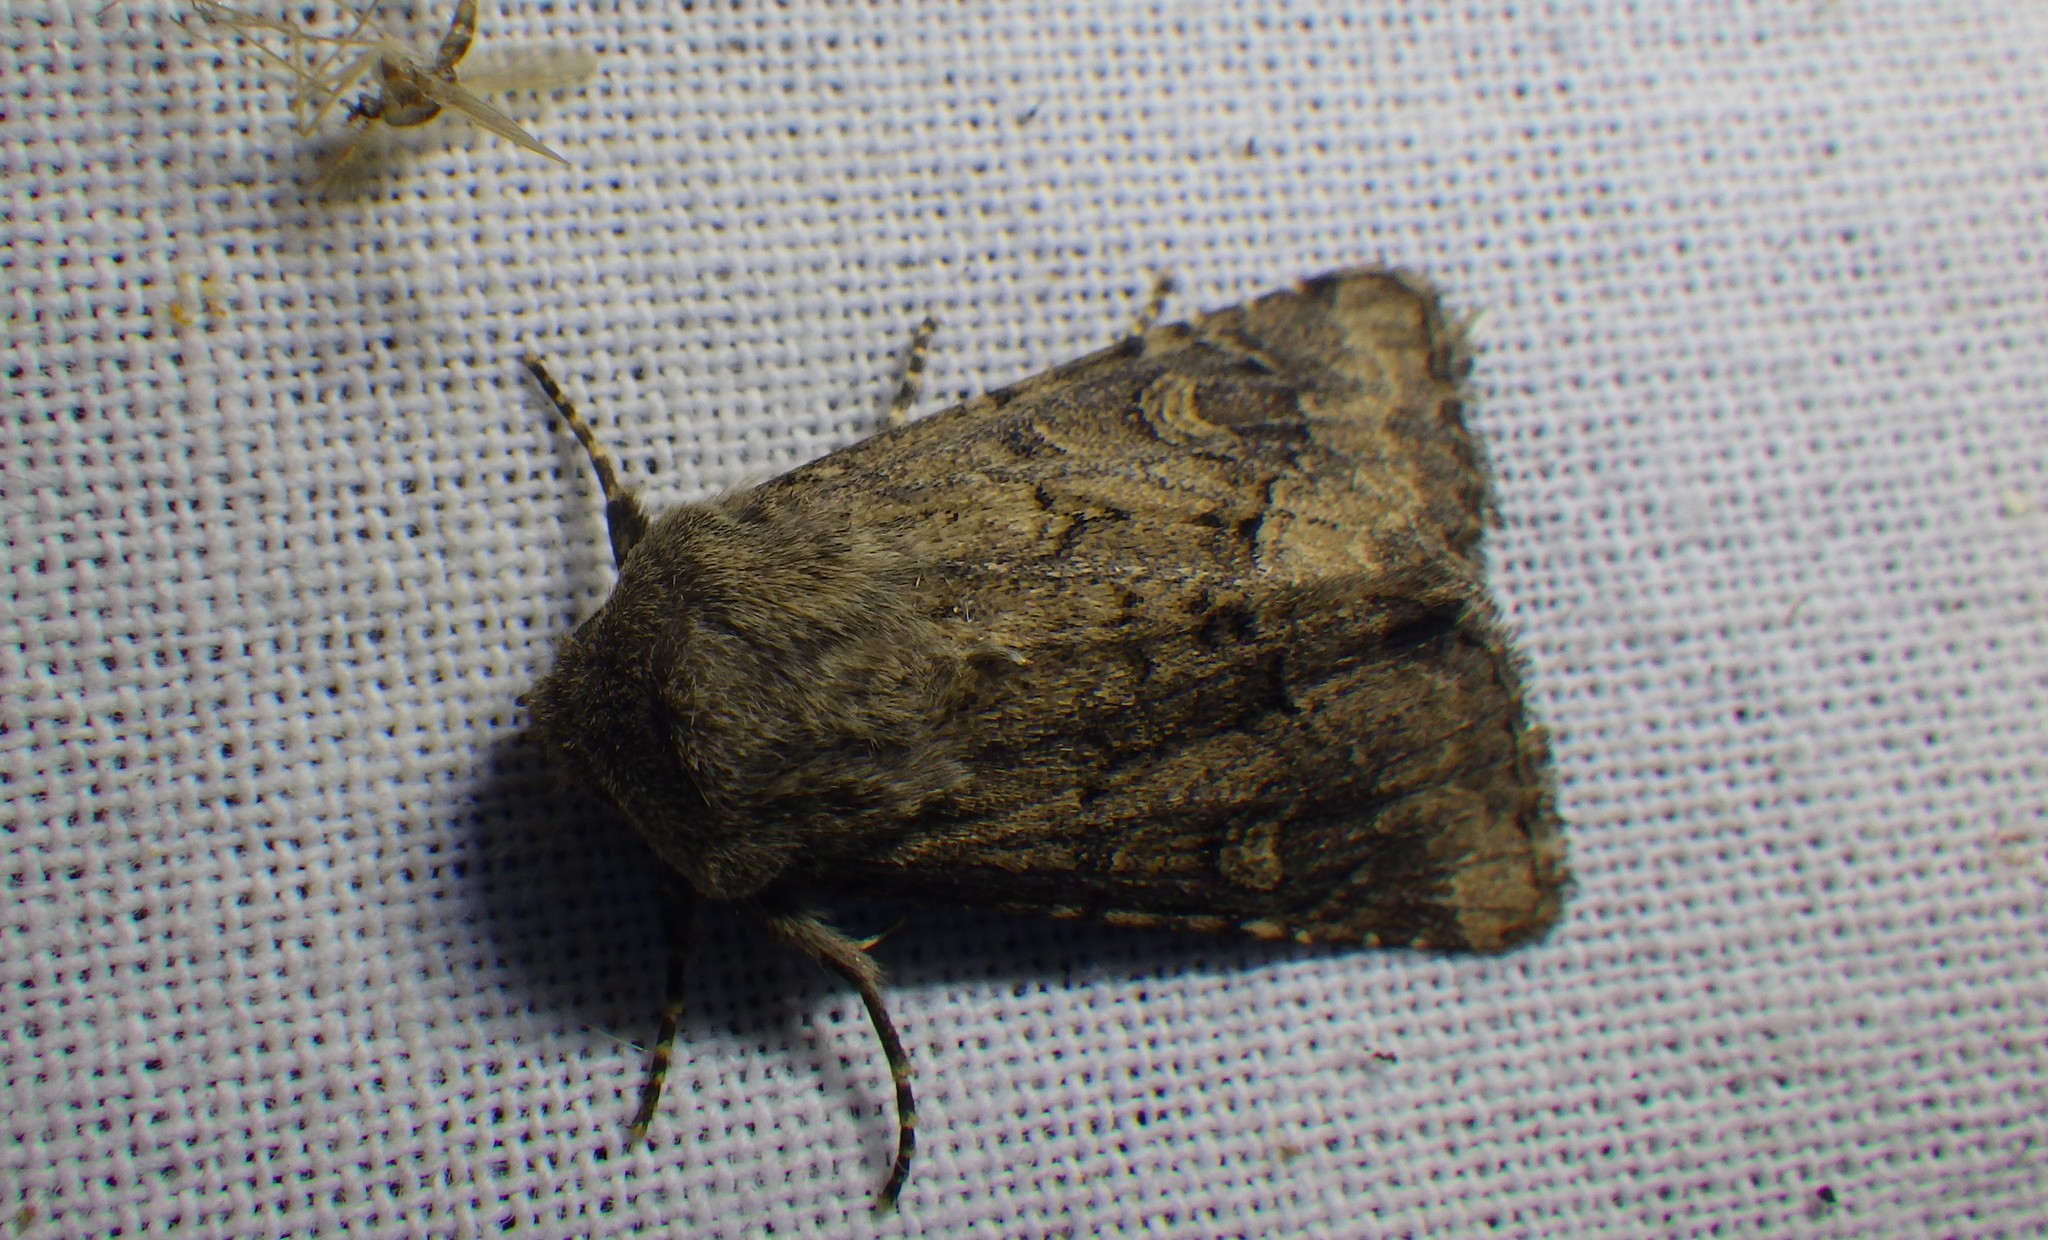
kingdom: Animalia
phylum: Arthropoda
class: Insecta
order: Lepidoptera
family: Noctuidae
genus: Luperina
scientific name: Luperina testacea
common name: Flounced rustic
